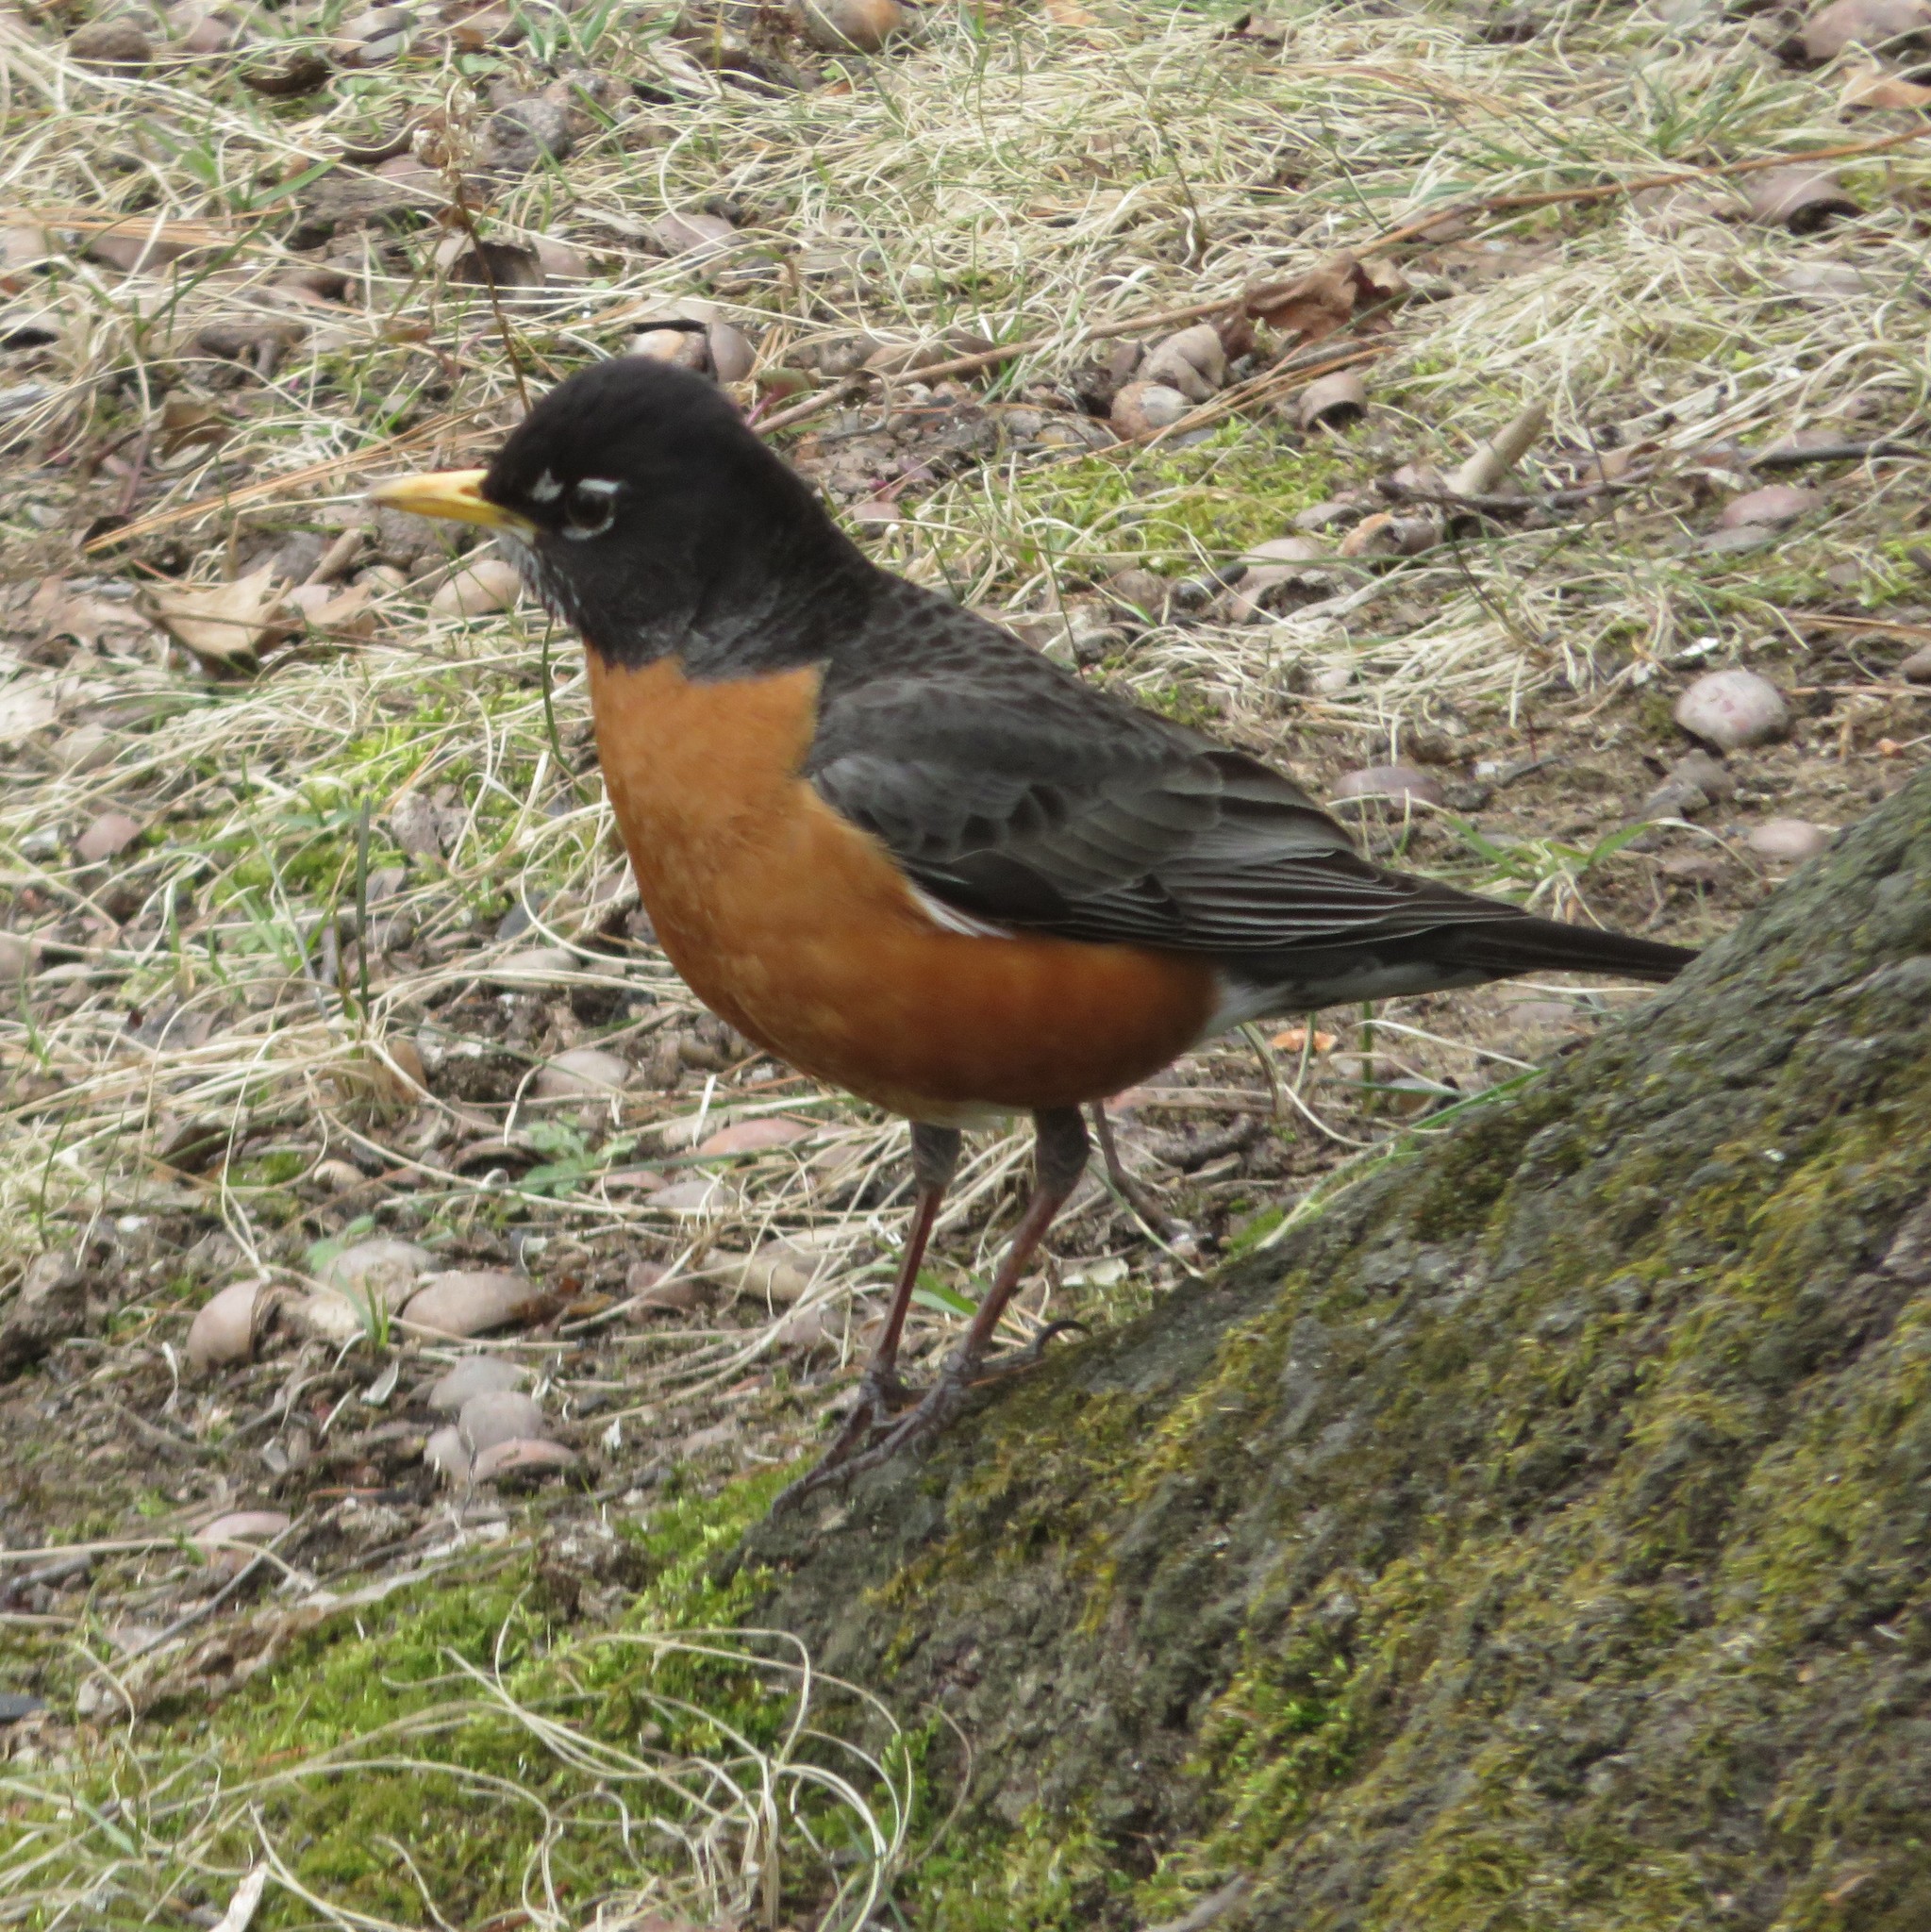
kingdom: Animalia
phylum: Chordata
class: Aves
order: Passeriformes
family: Turdidae
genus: Turdus
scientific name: Turdus migratorius
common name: American robin
